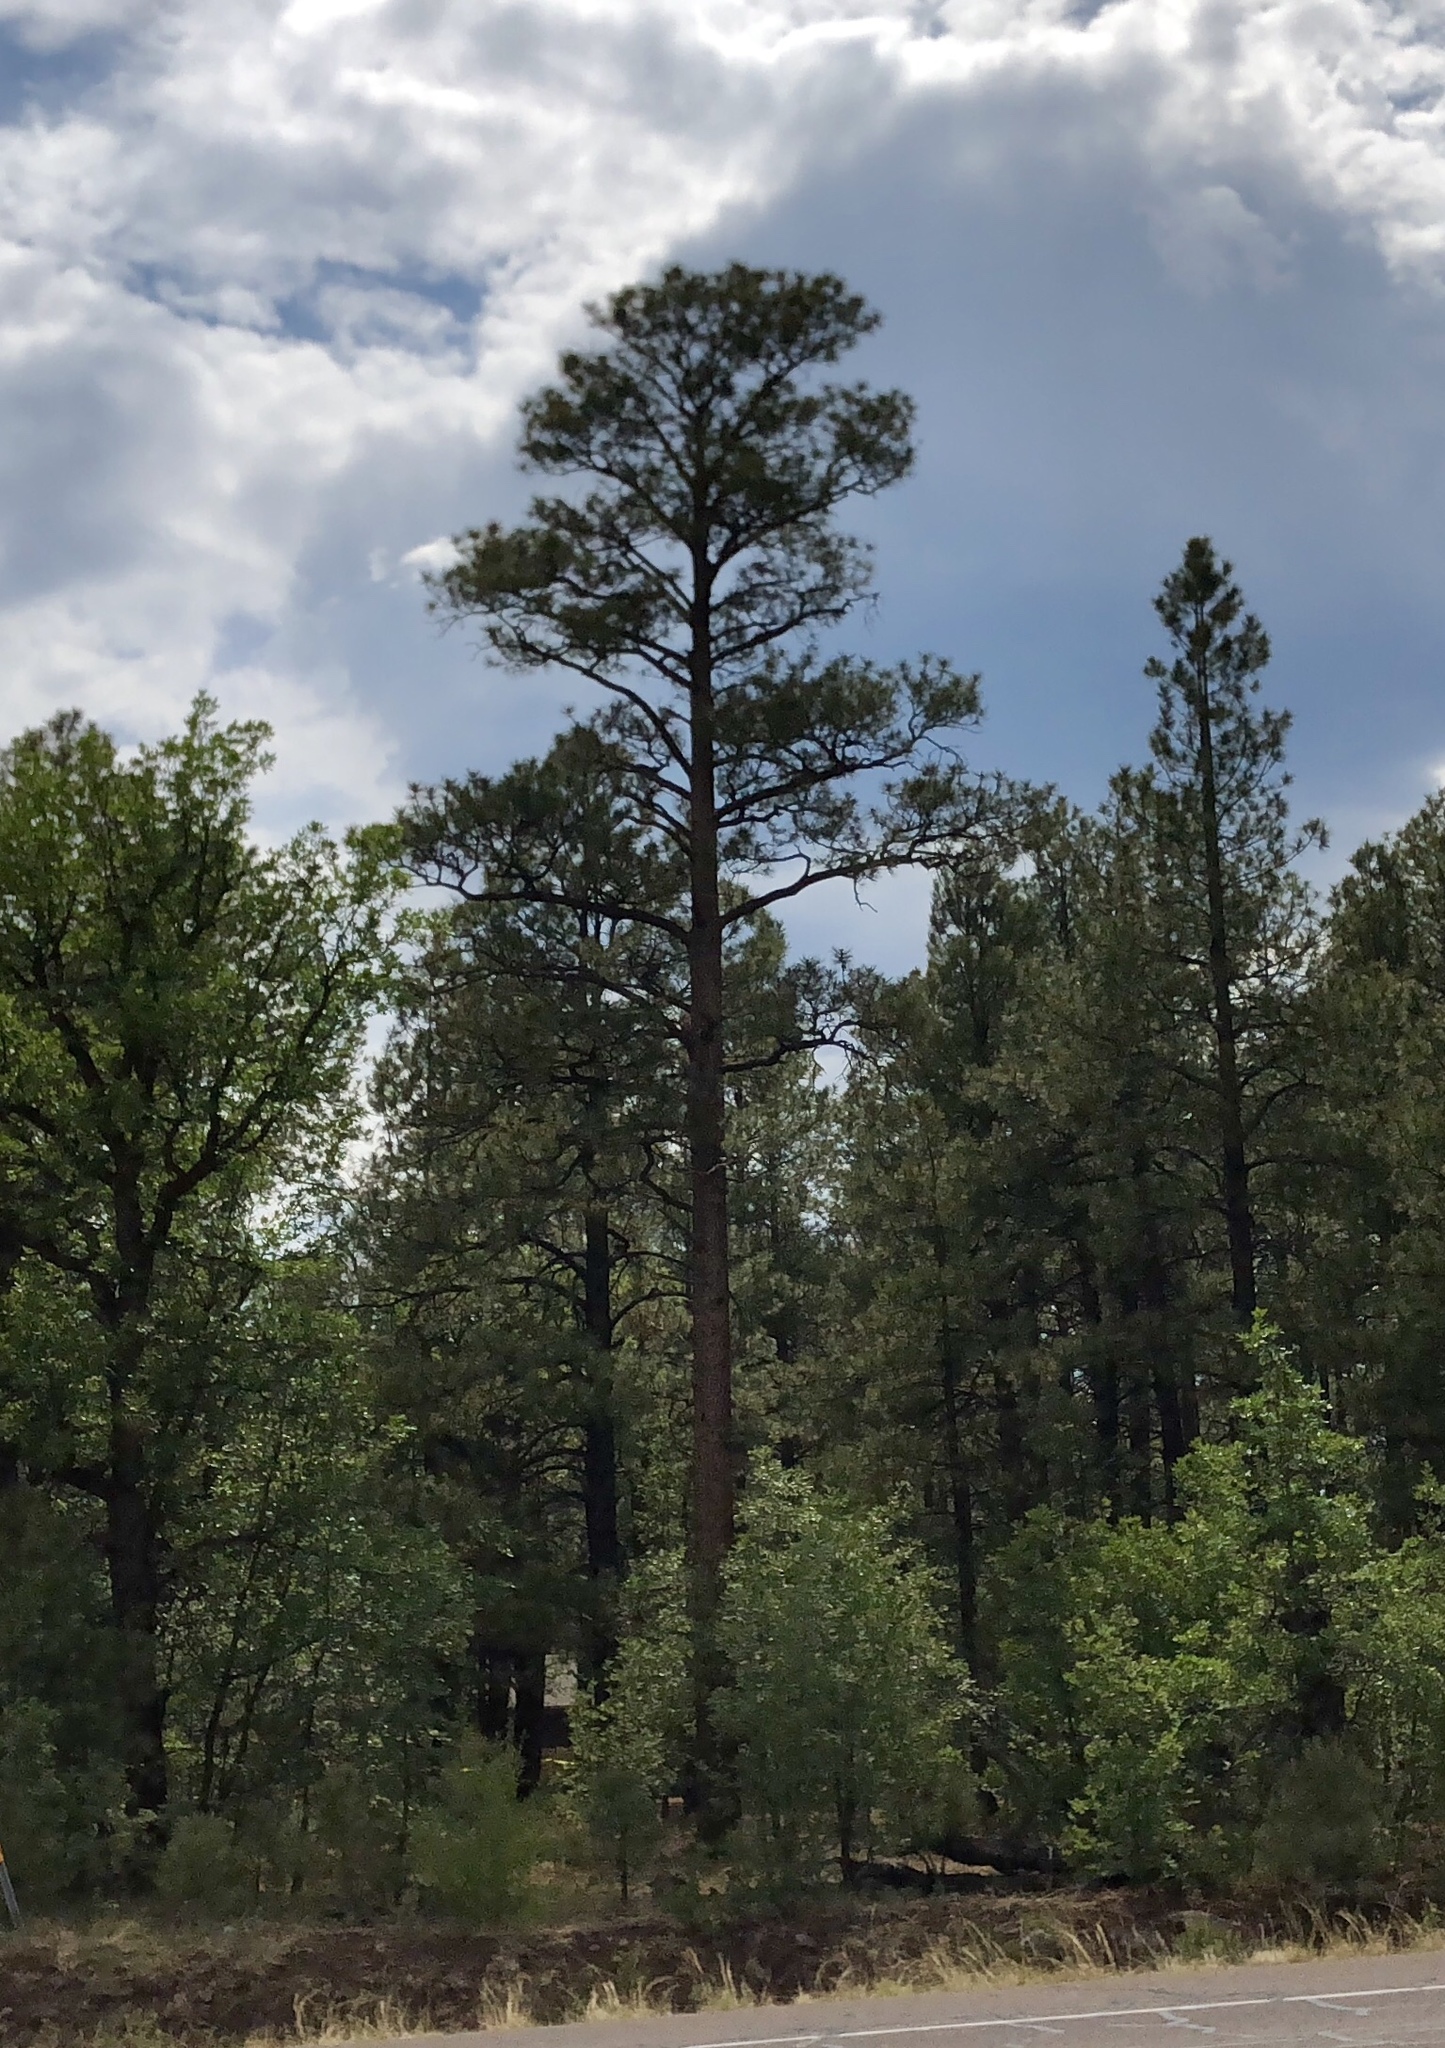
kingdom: Plantae
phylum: Tracheophyta
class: Pinopsida
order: Pinales
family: Pinaceae
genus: Pinus
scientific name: Pinus ponderosa
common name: Western yellow-pine
